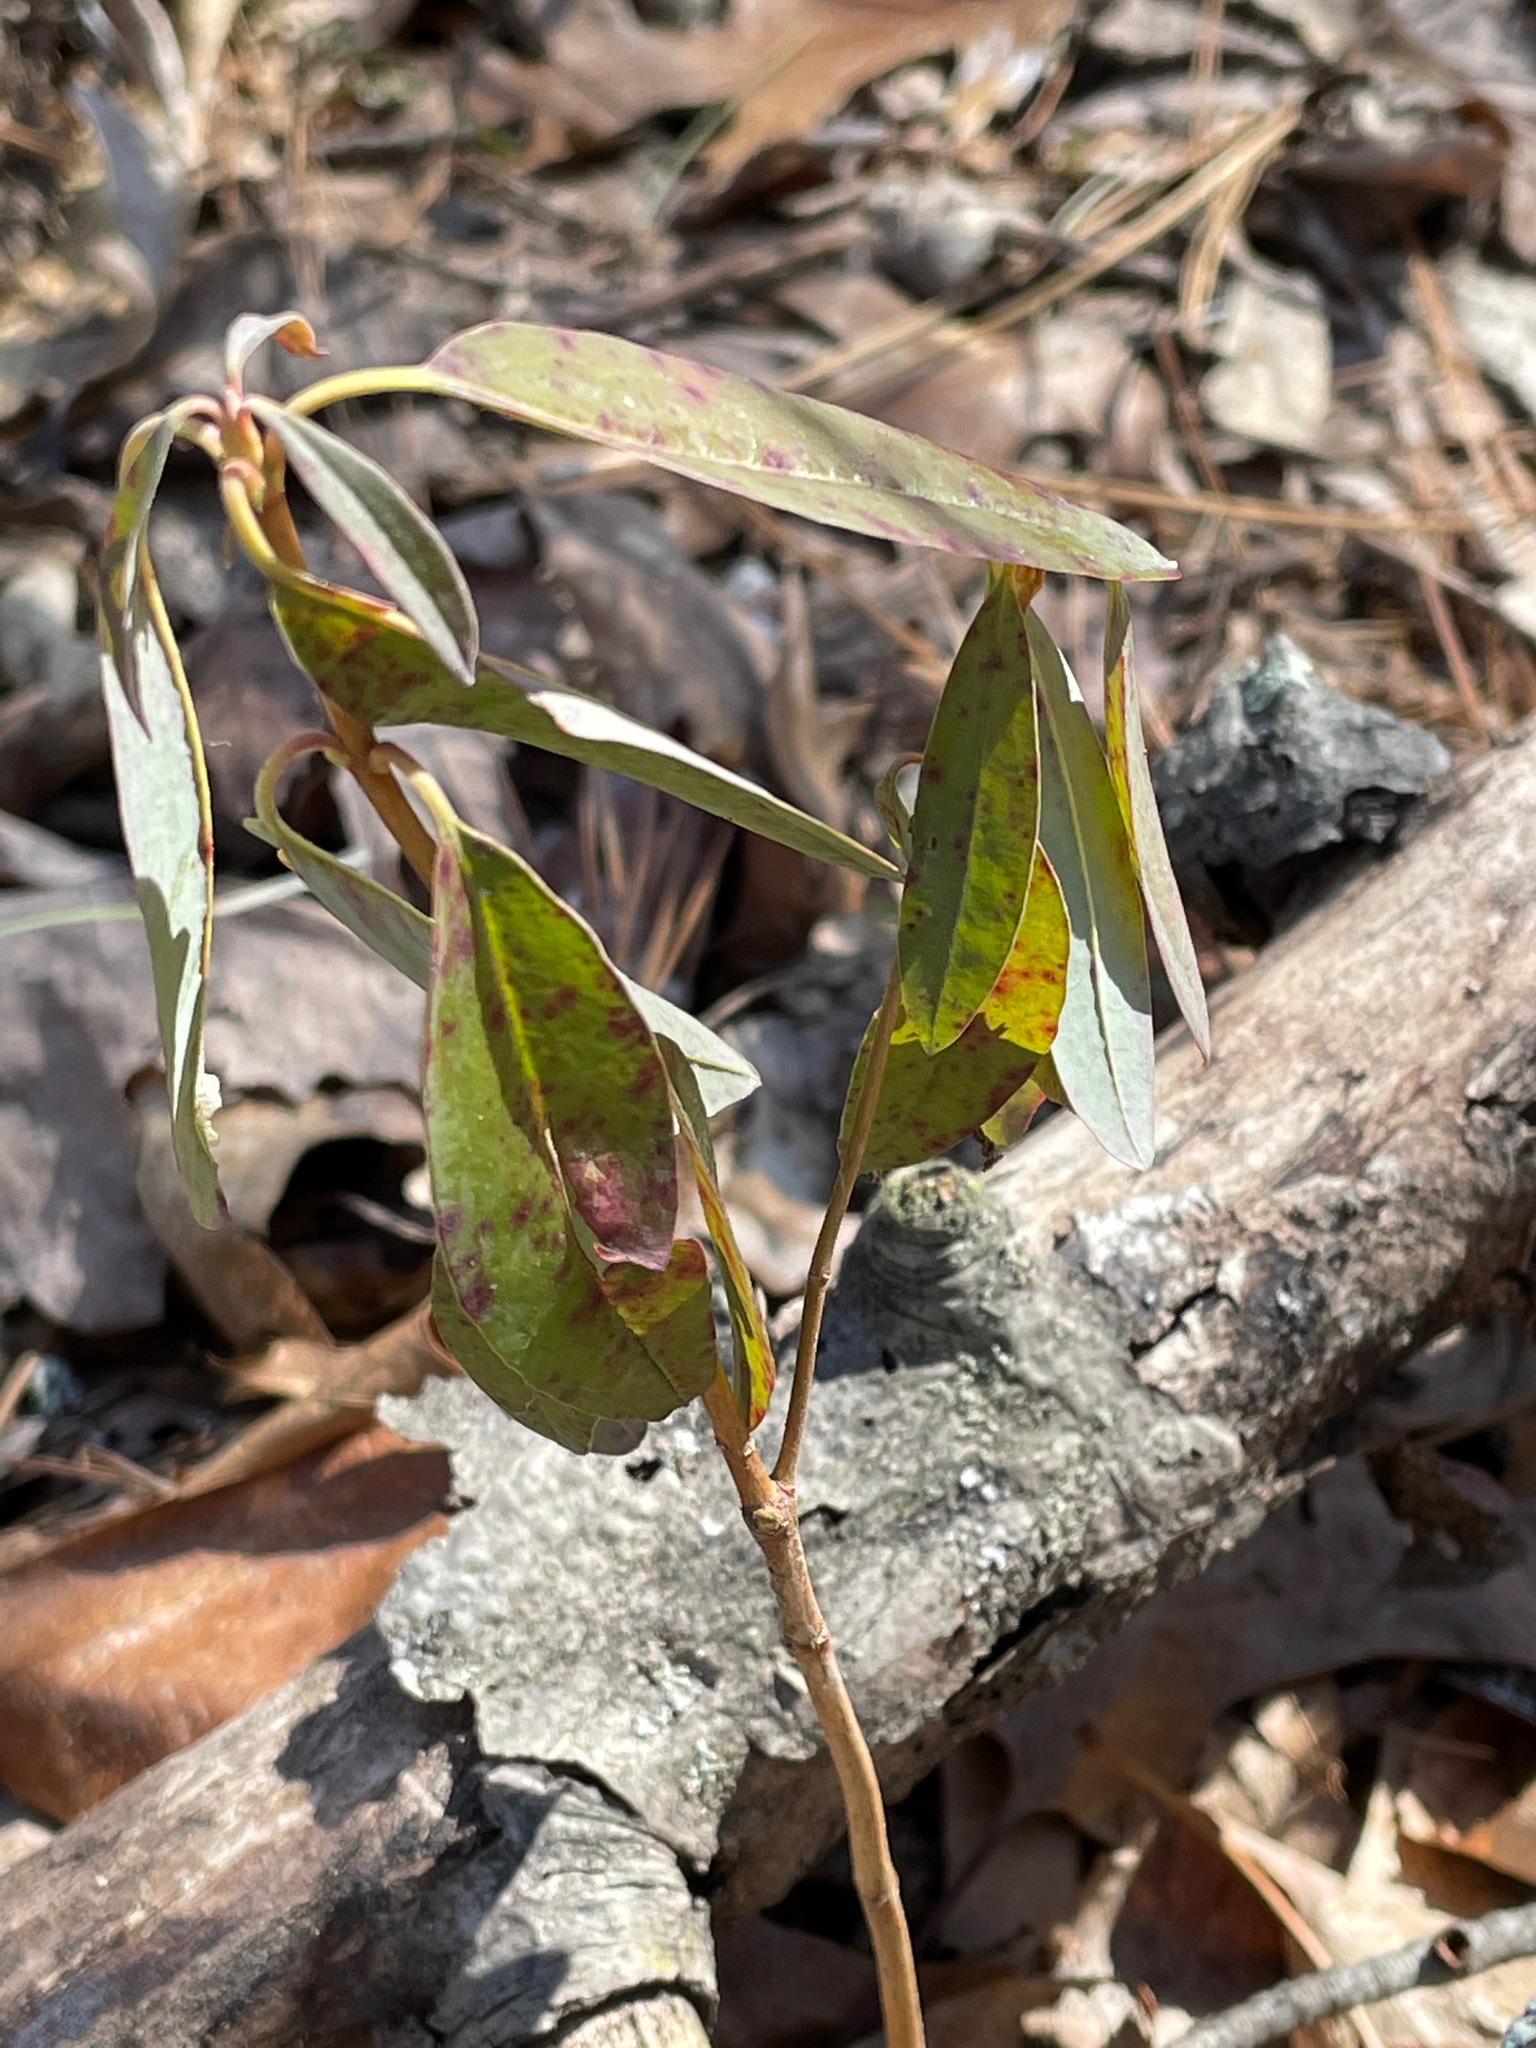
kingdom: Plantae
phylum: Tracheophyta
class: Magnoliopsida
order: Ericales
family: Ericaceae
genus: Kalmia
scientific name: Kalmia angustifolia
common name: Sheep-laurel
